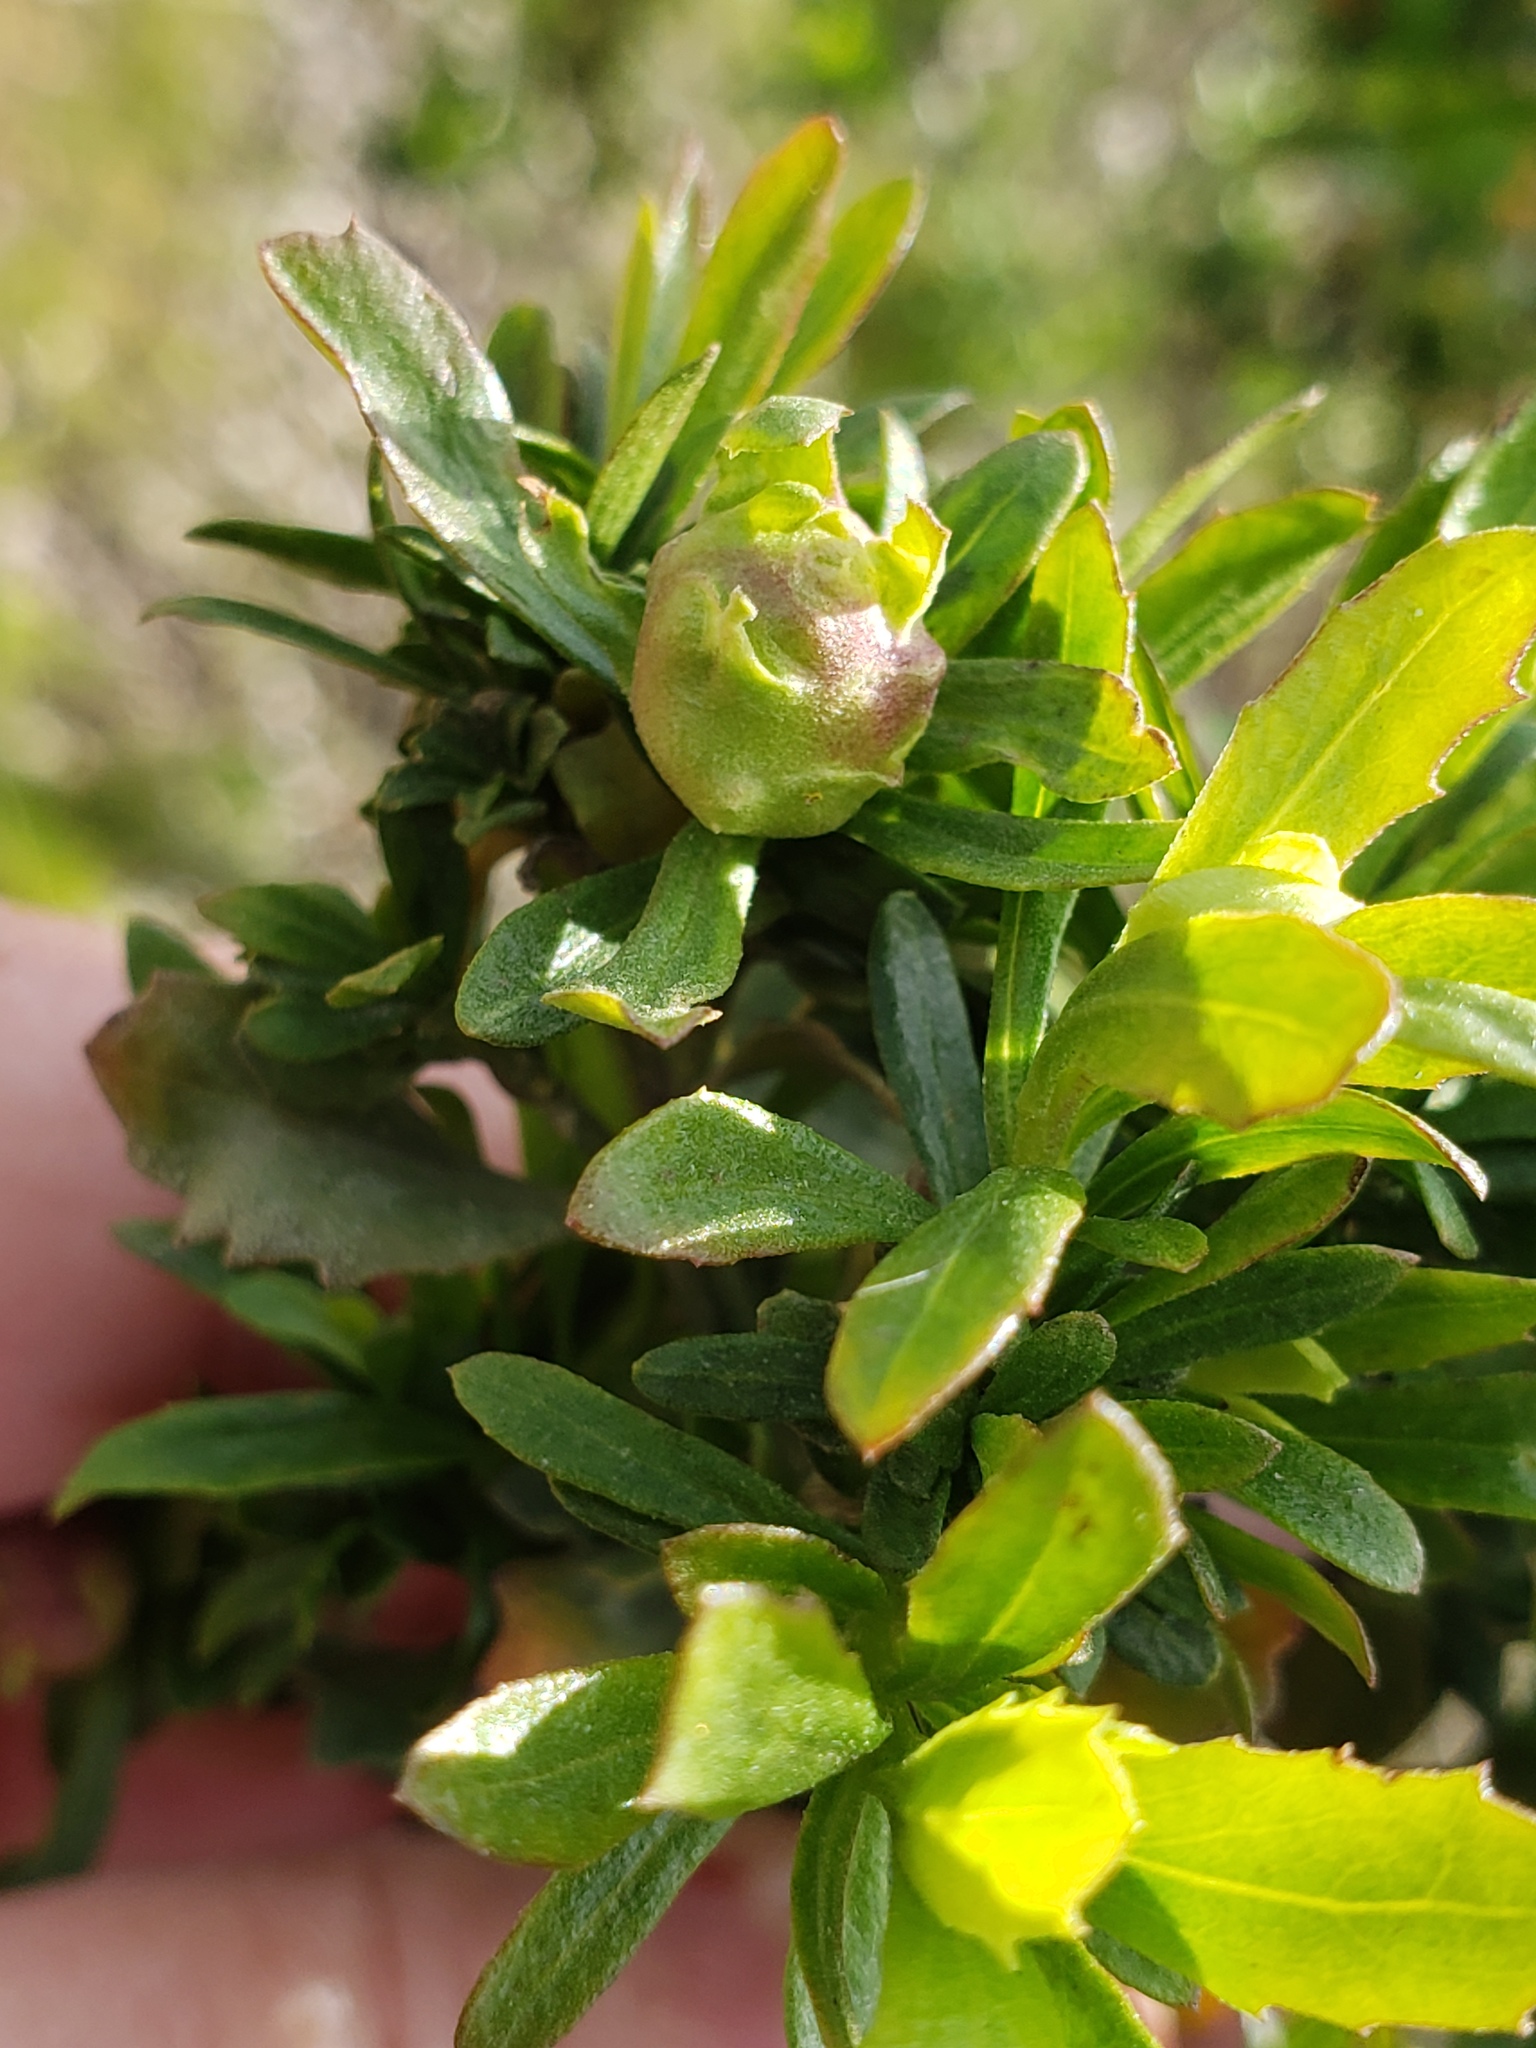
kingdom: Animalia
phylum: Arthropoda
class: Insecta
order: Diptera
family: Cecidomyiidae
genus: Rhopalomyia
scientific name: Rhopalomyia californica
